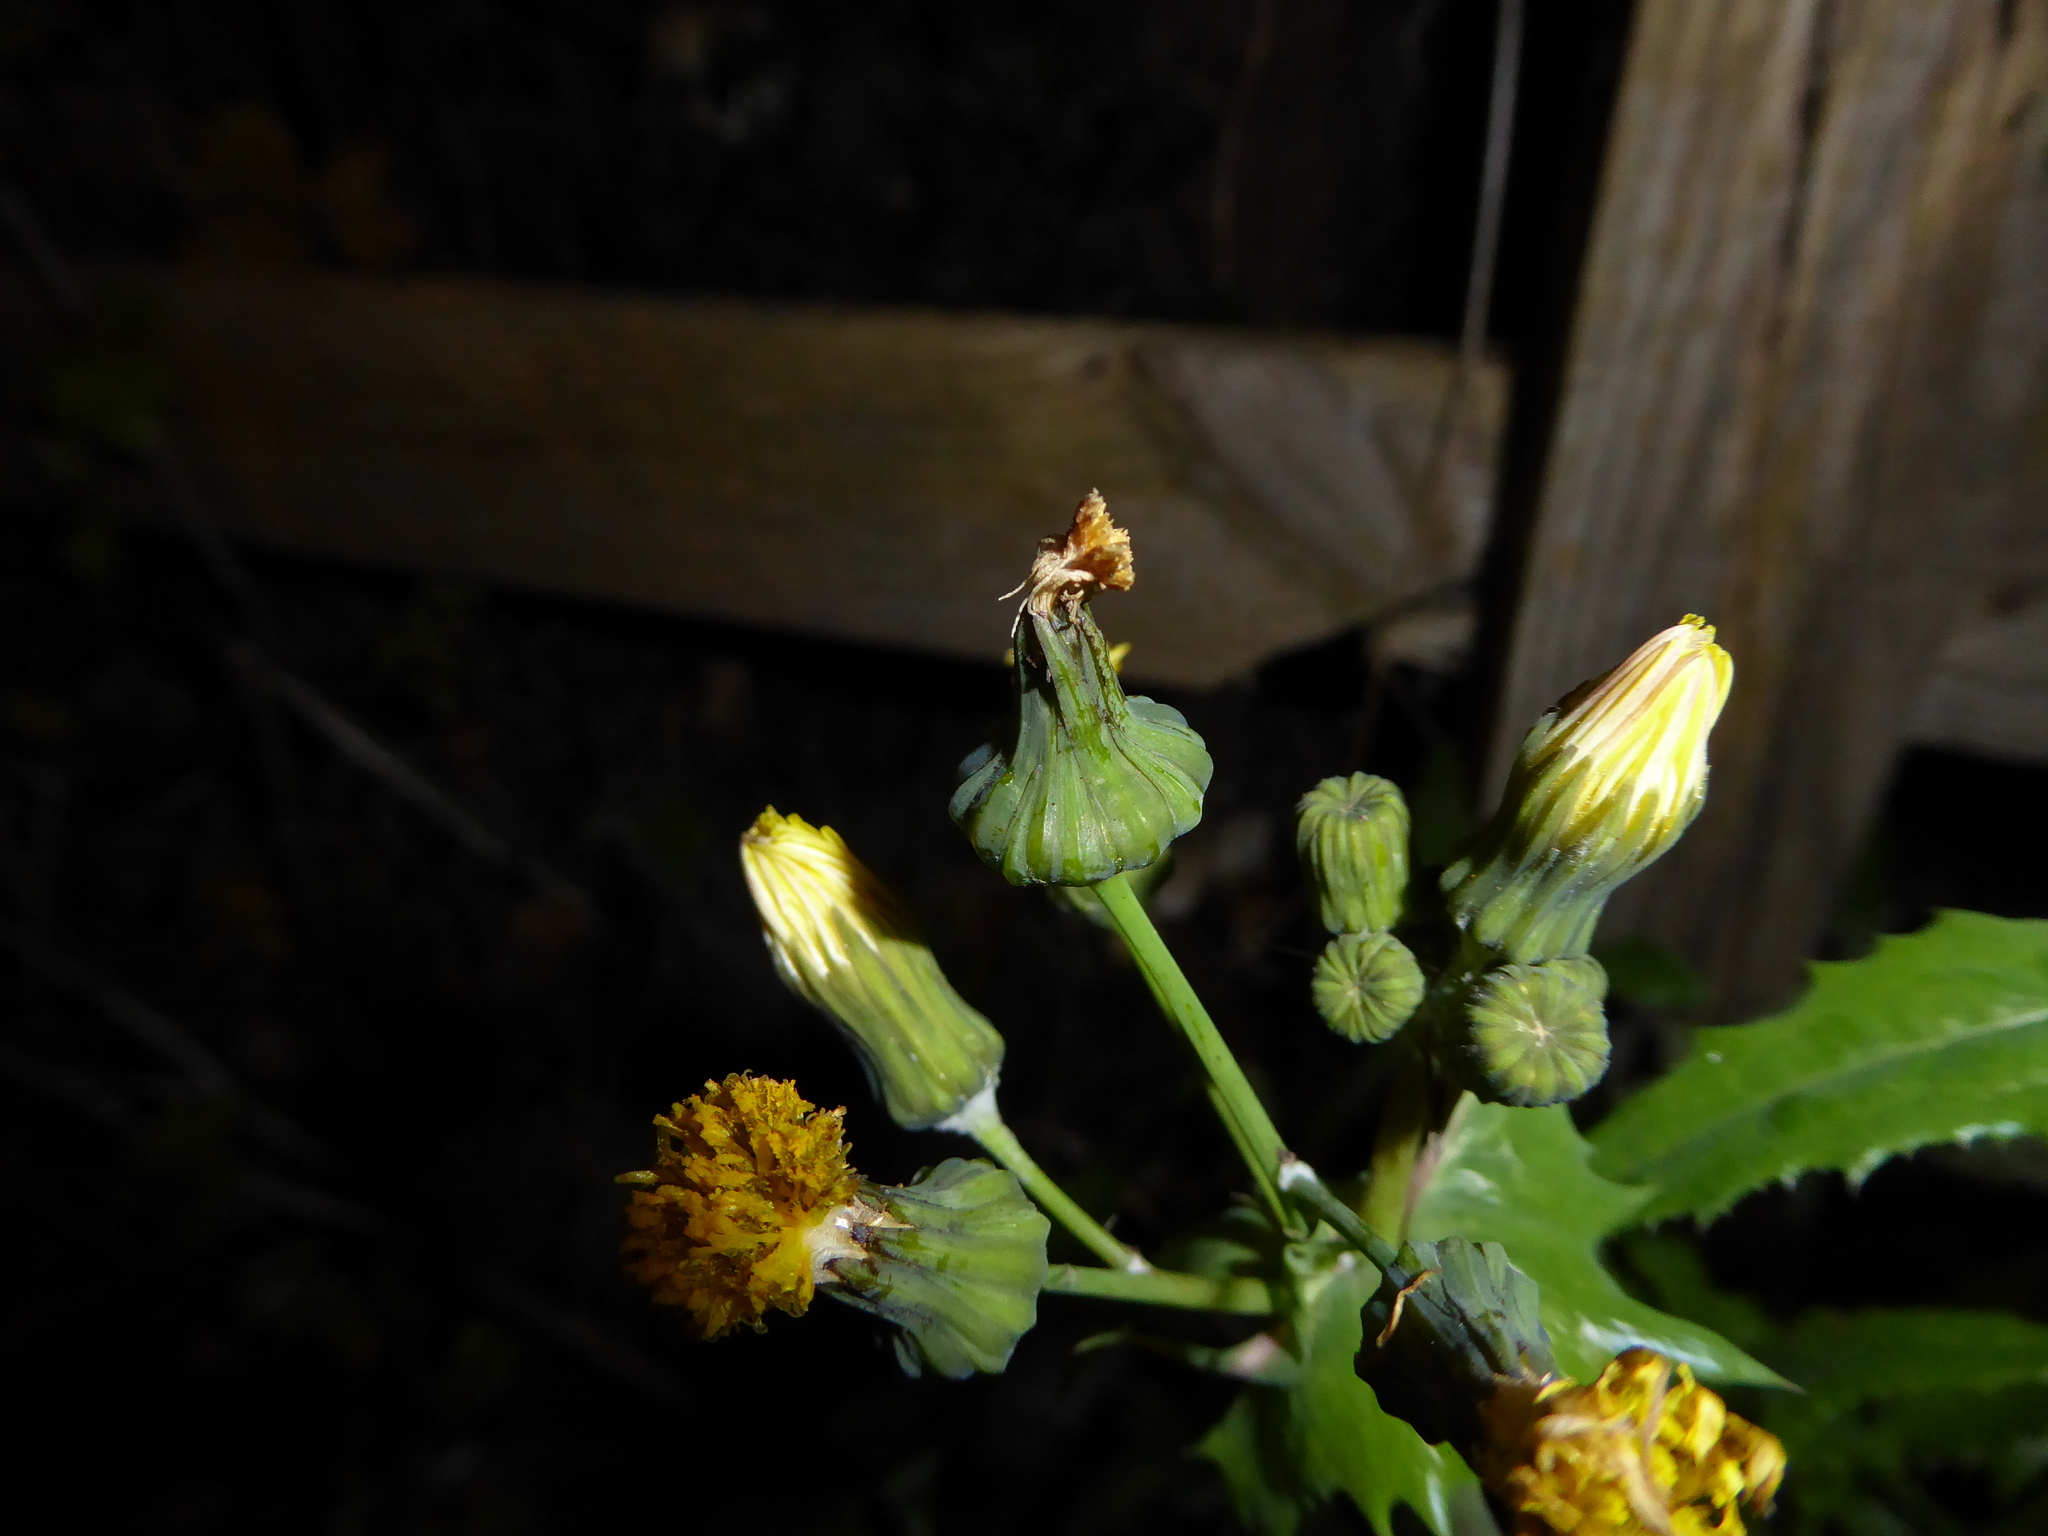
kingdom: Plantae
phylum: Tracheophyta
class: Magnoliopsida
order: Asterales
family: Asteraceae
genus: Sonchus
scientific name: Sonchus oleraceus
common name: Common sowthistle
